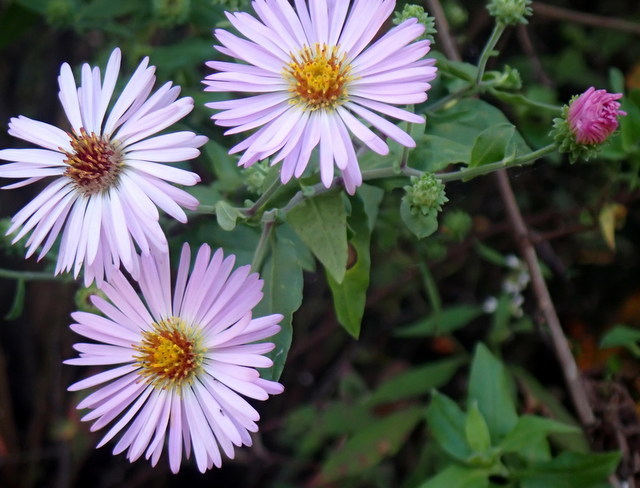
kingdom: Plantae
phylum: Tracheophyta
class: Magnoliopsida
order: Asterales
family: Asteraceae
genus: Ampelaster
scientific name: Ampelaster carolinianus
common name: Climbing aster
